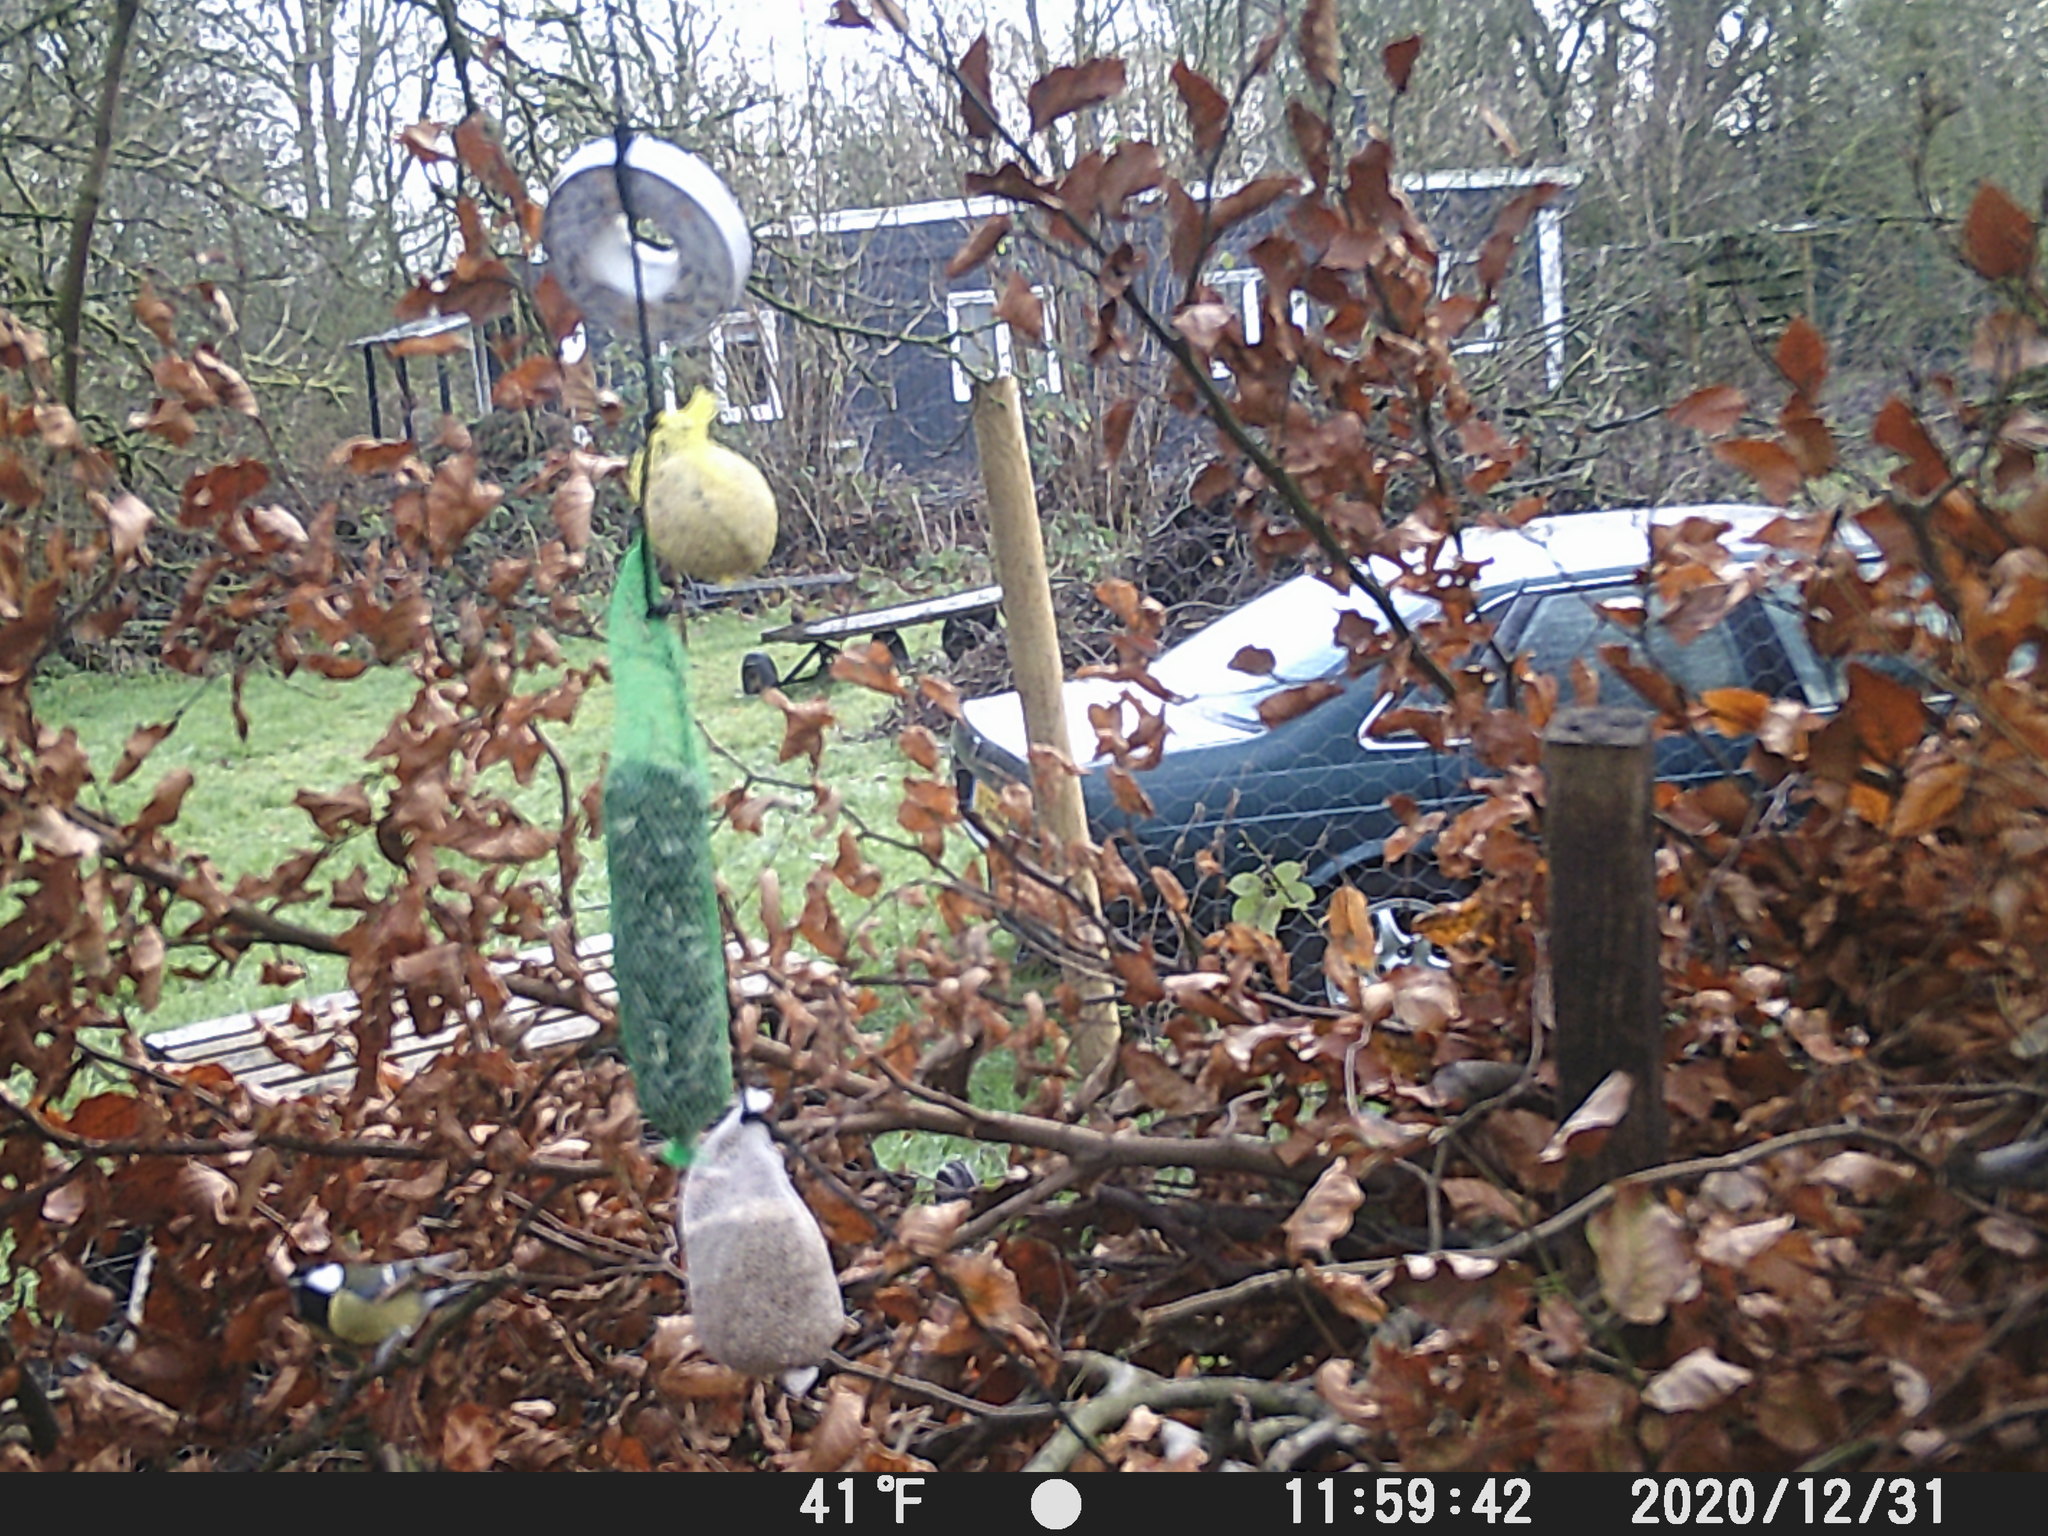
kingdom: Animalia
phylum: Chordata
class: Aves
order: Passeriformes
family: Paridae
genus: Parus
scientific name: Parus major
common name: Great tit
